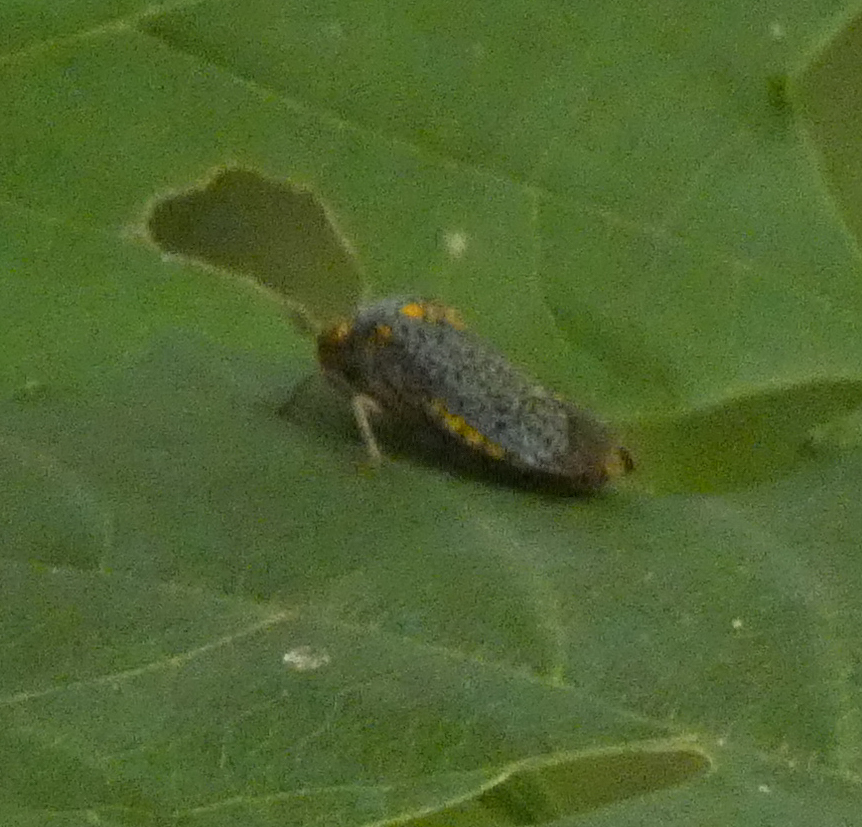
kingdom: Animalia
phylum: Arthropoda
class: Insecta
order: Hemiptera
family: Cicadellidae
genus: Oncometopia
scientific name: Oncometopia orbona
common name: Broad-headed sharpshooter
